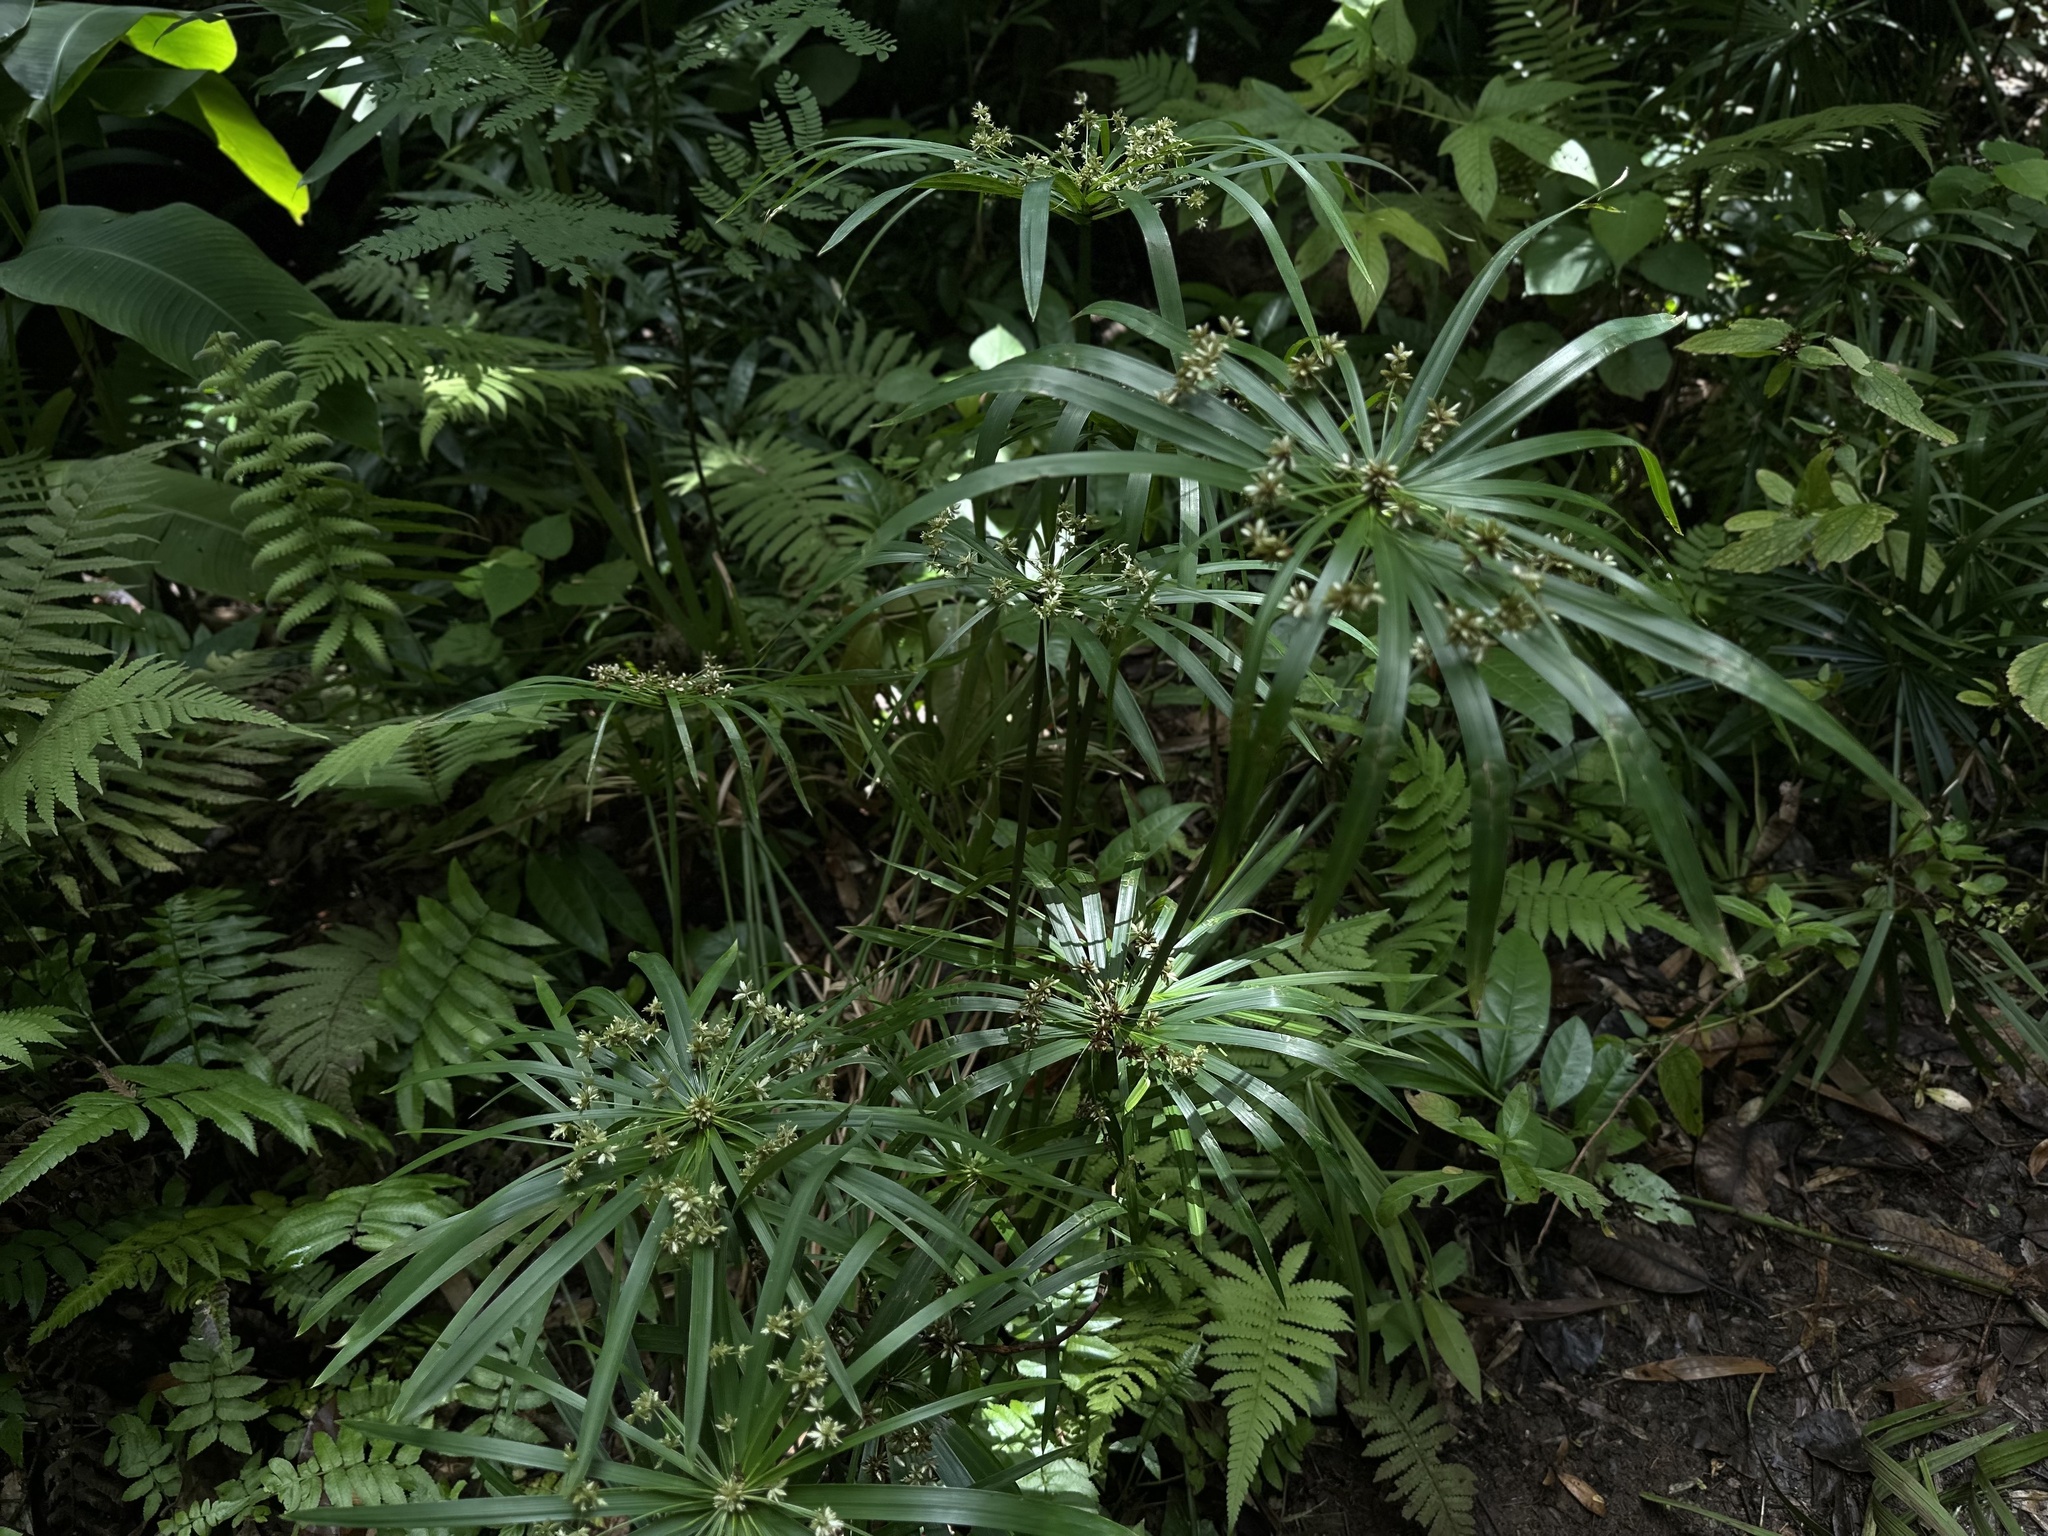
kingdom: Plantae
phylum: Tracheophyta
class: Liliopsida
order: Poales
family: Cyperaceae
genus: Cyperus
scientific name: Cyperus alternifolius
